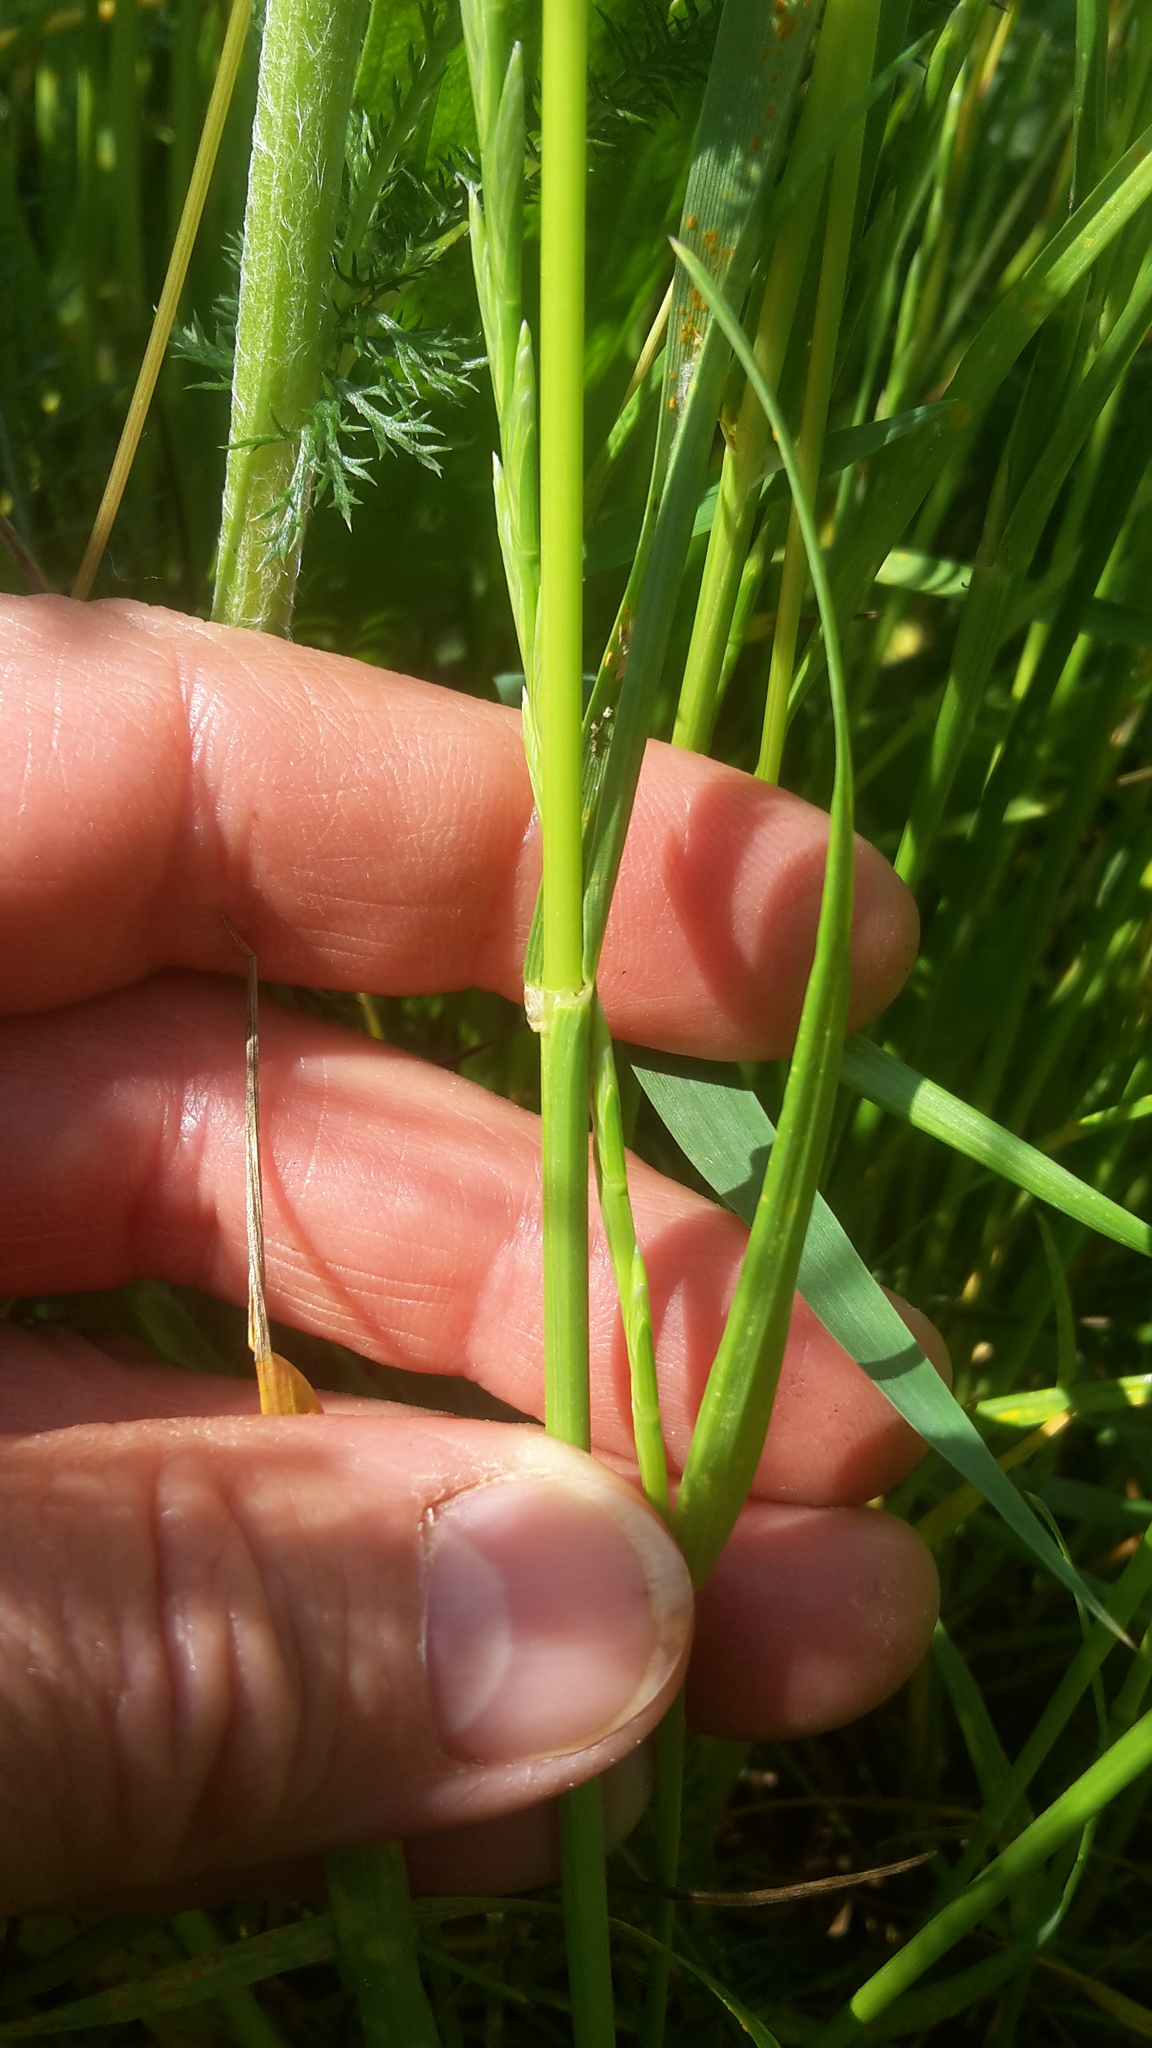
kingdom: Plantae
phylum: Tracheophyta
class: Liliopsida
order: Poales
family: Poaceae
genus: Lolium
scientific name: Lolium perenne
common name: Perennial ryegrass
